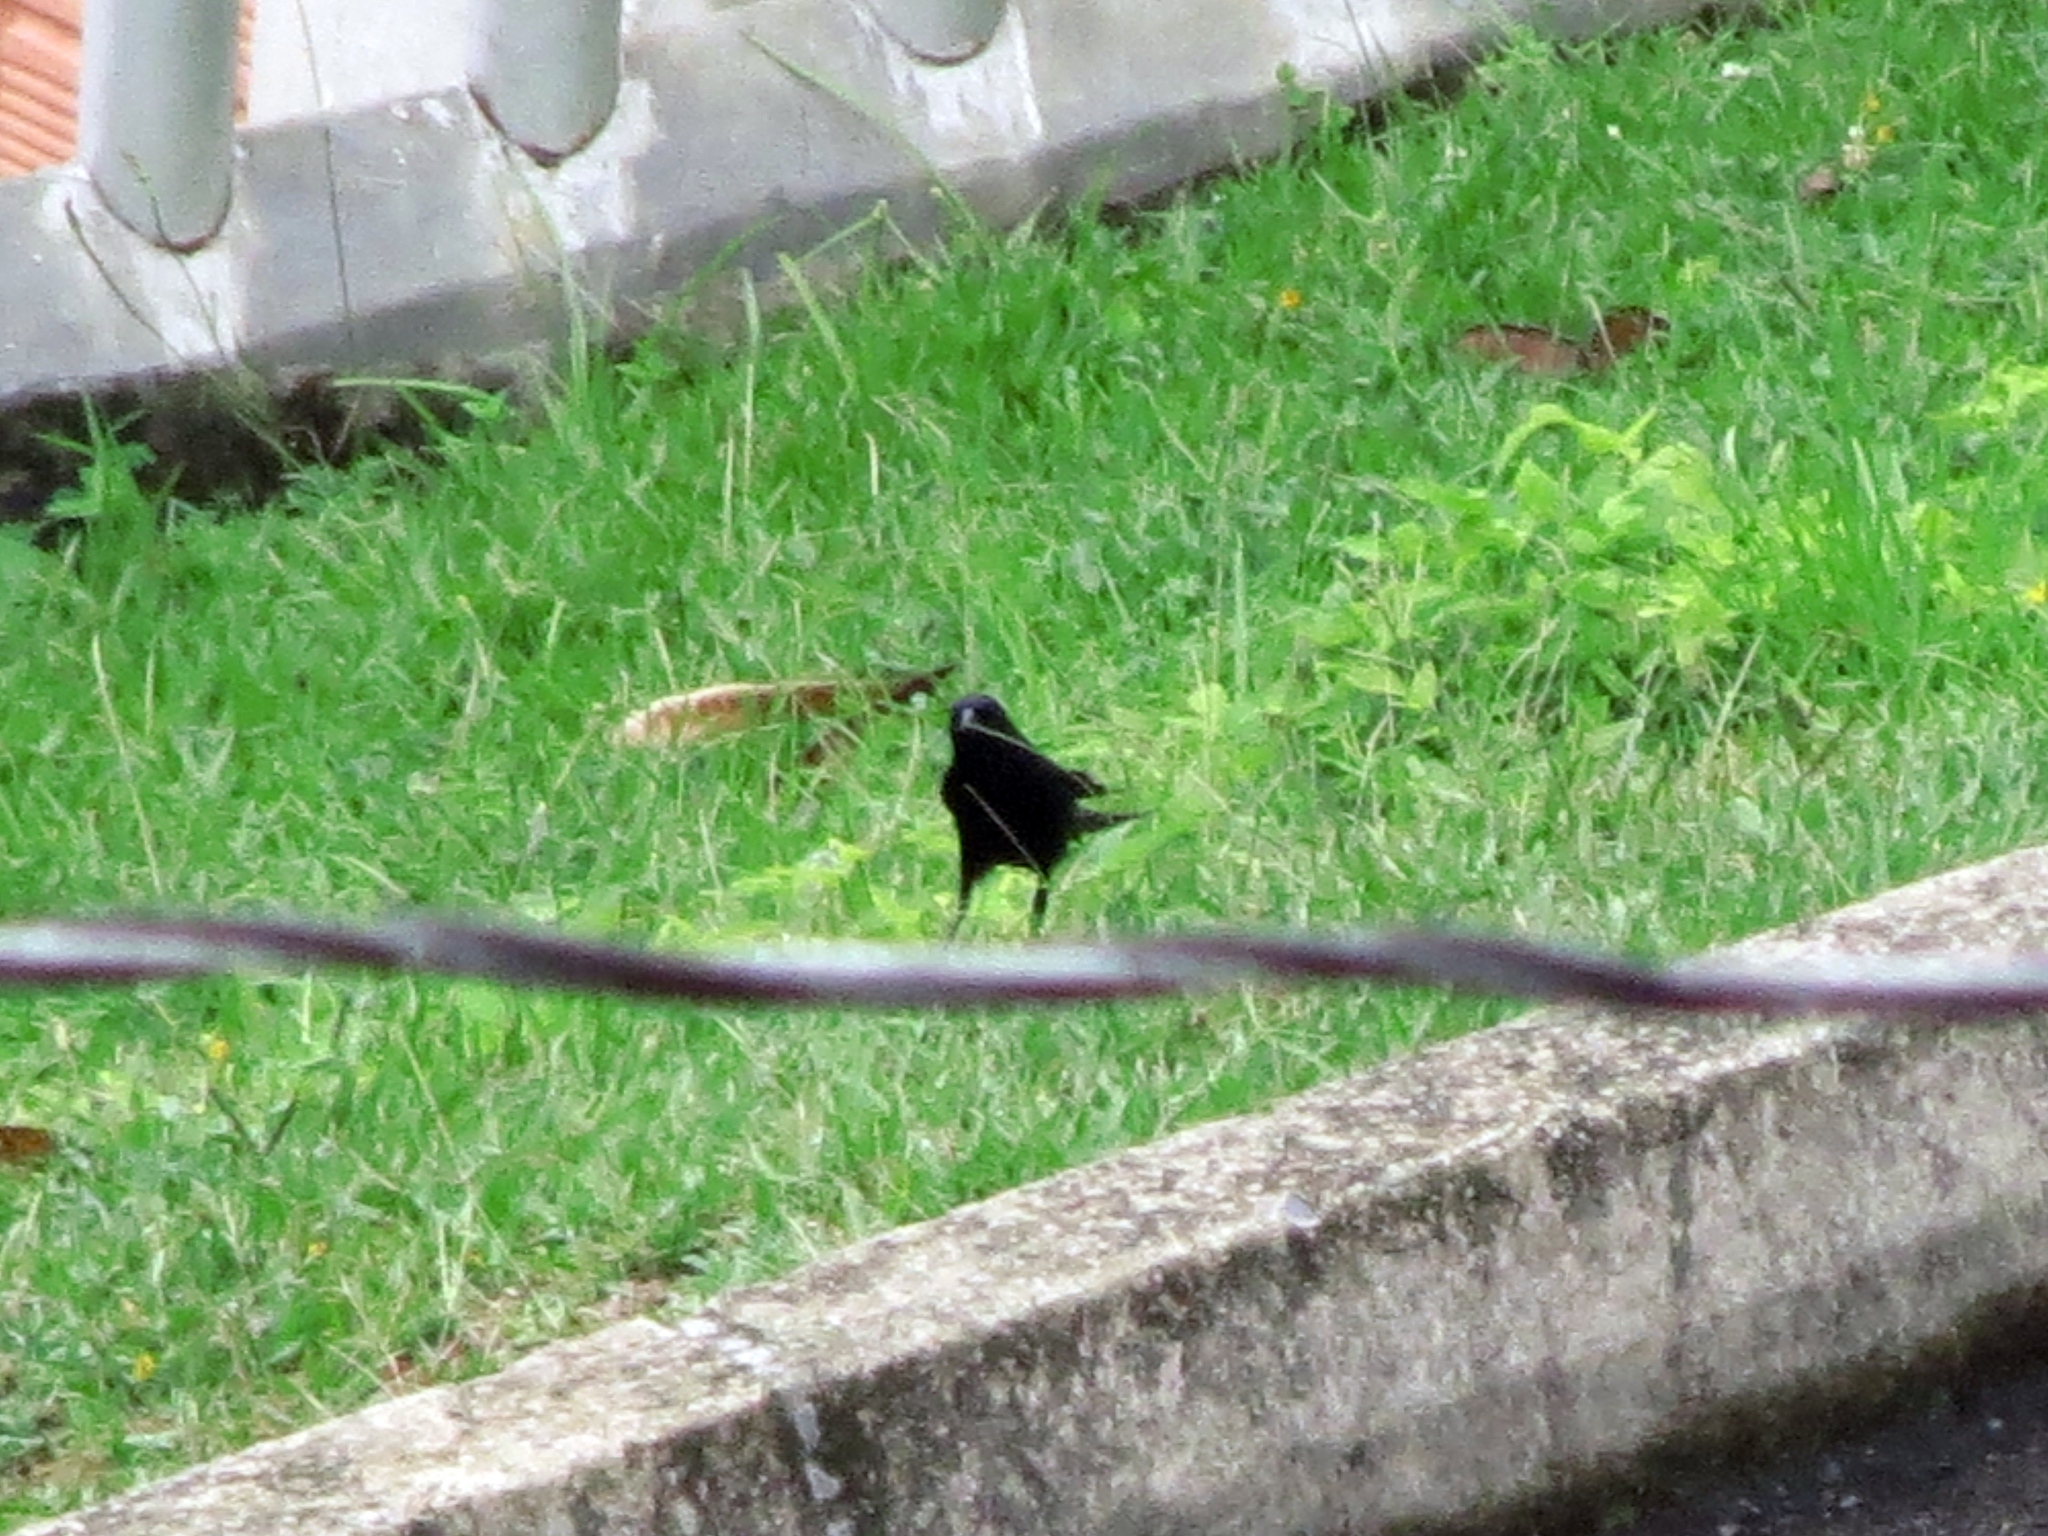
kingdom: Animalia
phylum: Chordata
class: Aves
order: Passeriformes
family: Icteridae
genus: Molothrus
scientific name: Molothrus bonariensis
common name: Shiny cowbird
